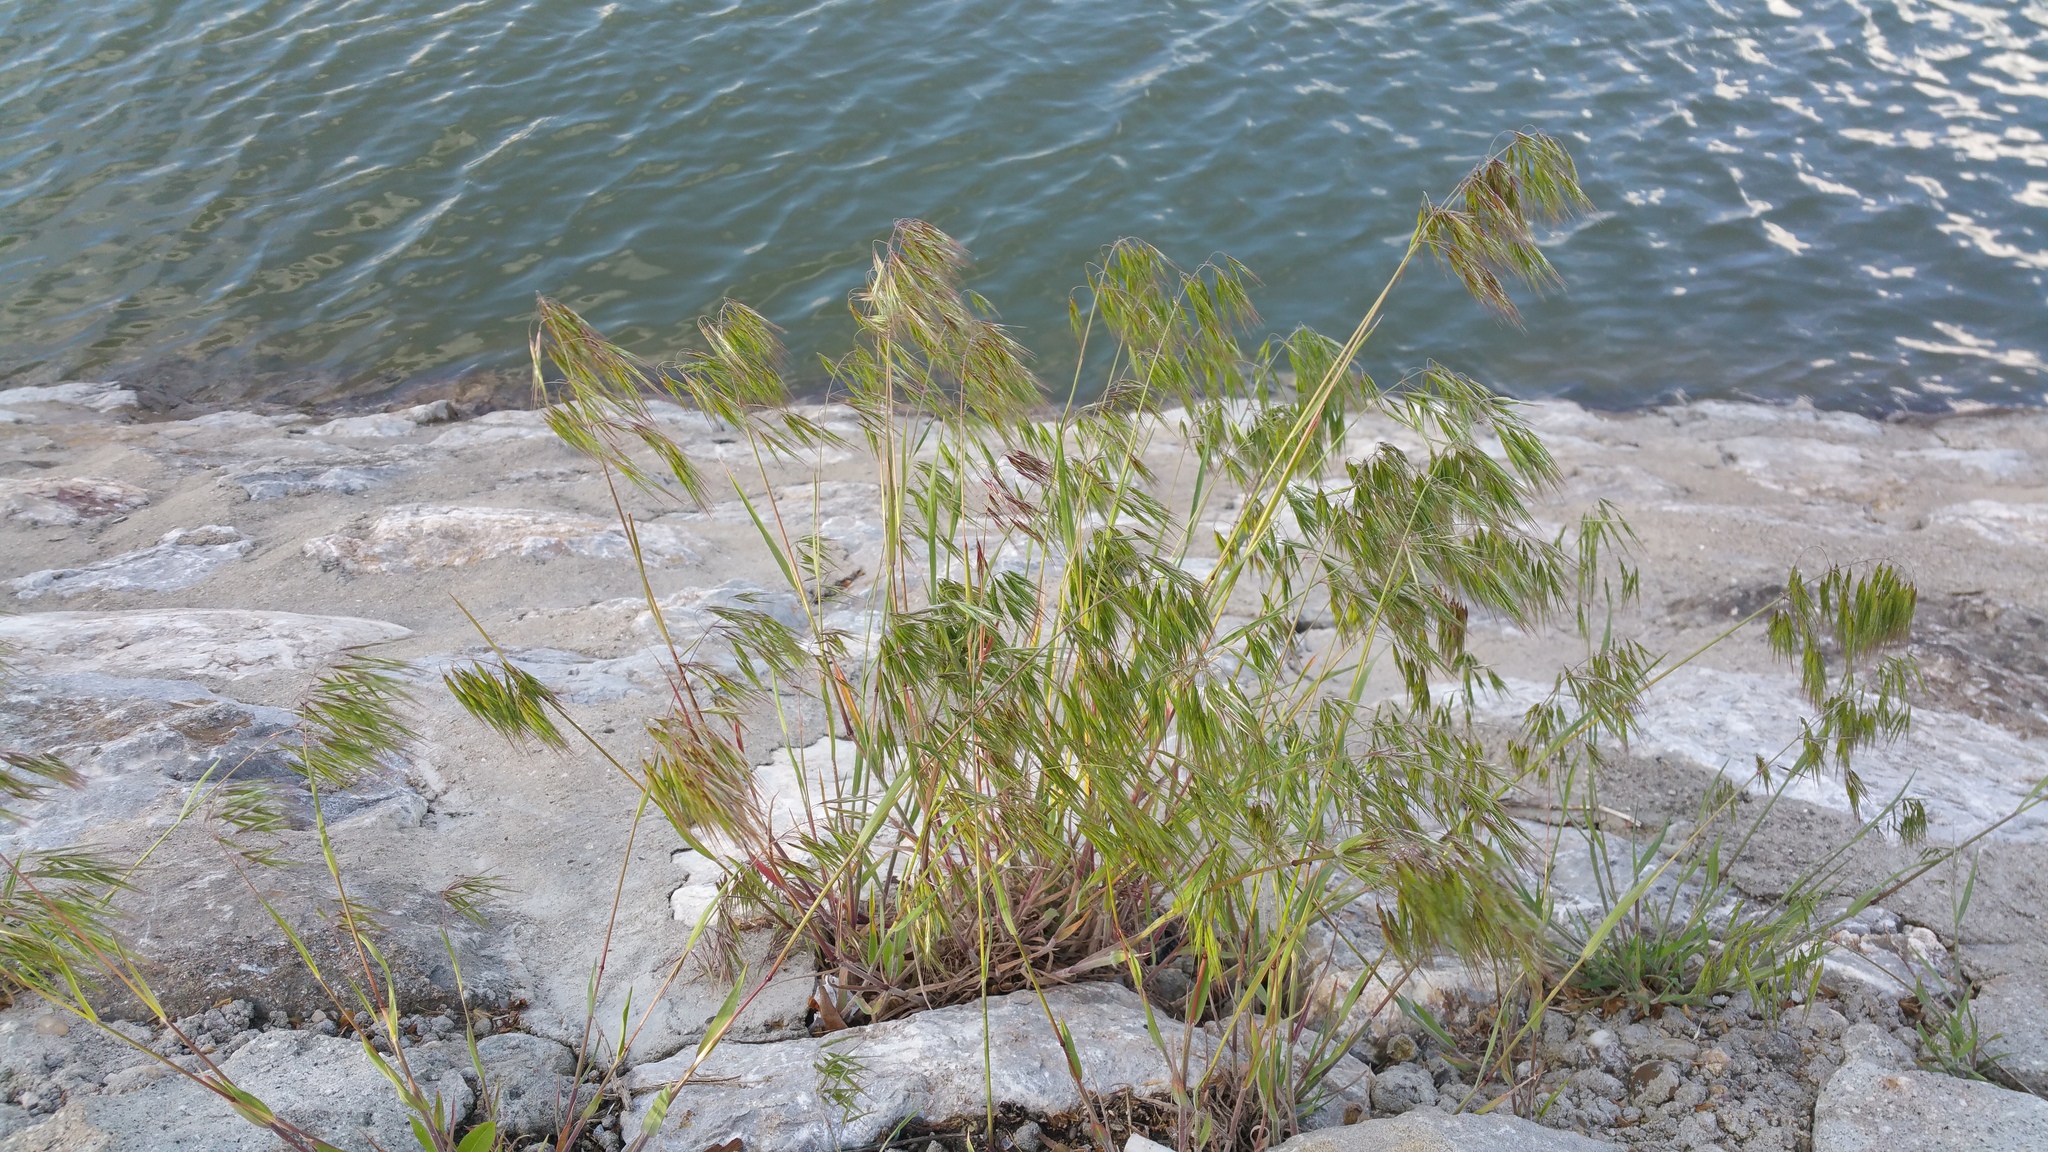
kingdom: Plantae
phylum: Tracheophyta
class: Liliopsida
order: Poales
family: Poaceae
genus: Bromus
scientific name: Bromus tectorum
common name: Cheatgrass
